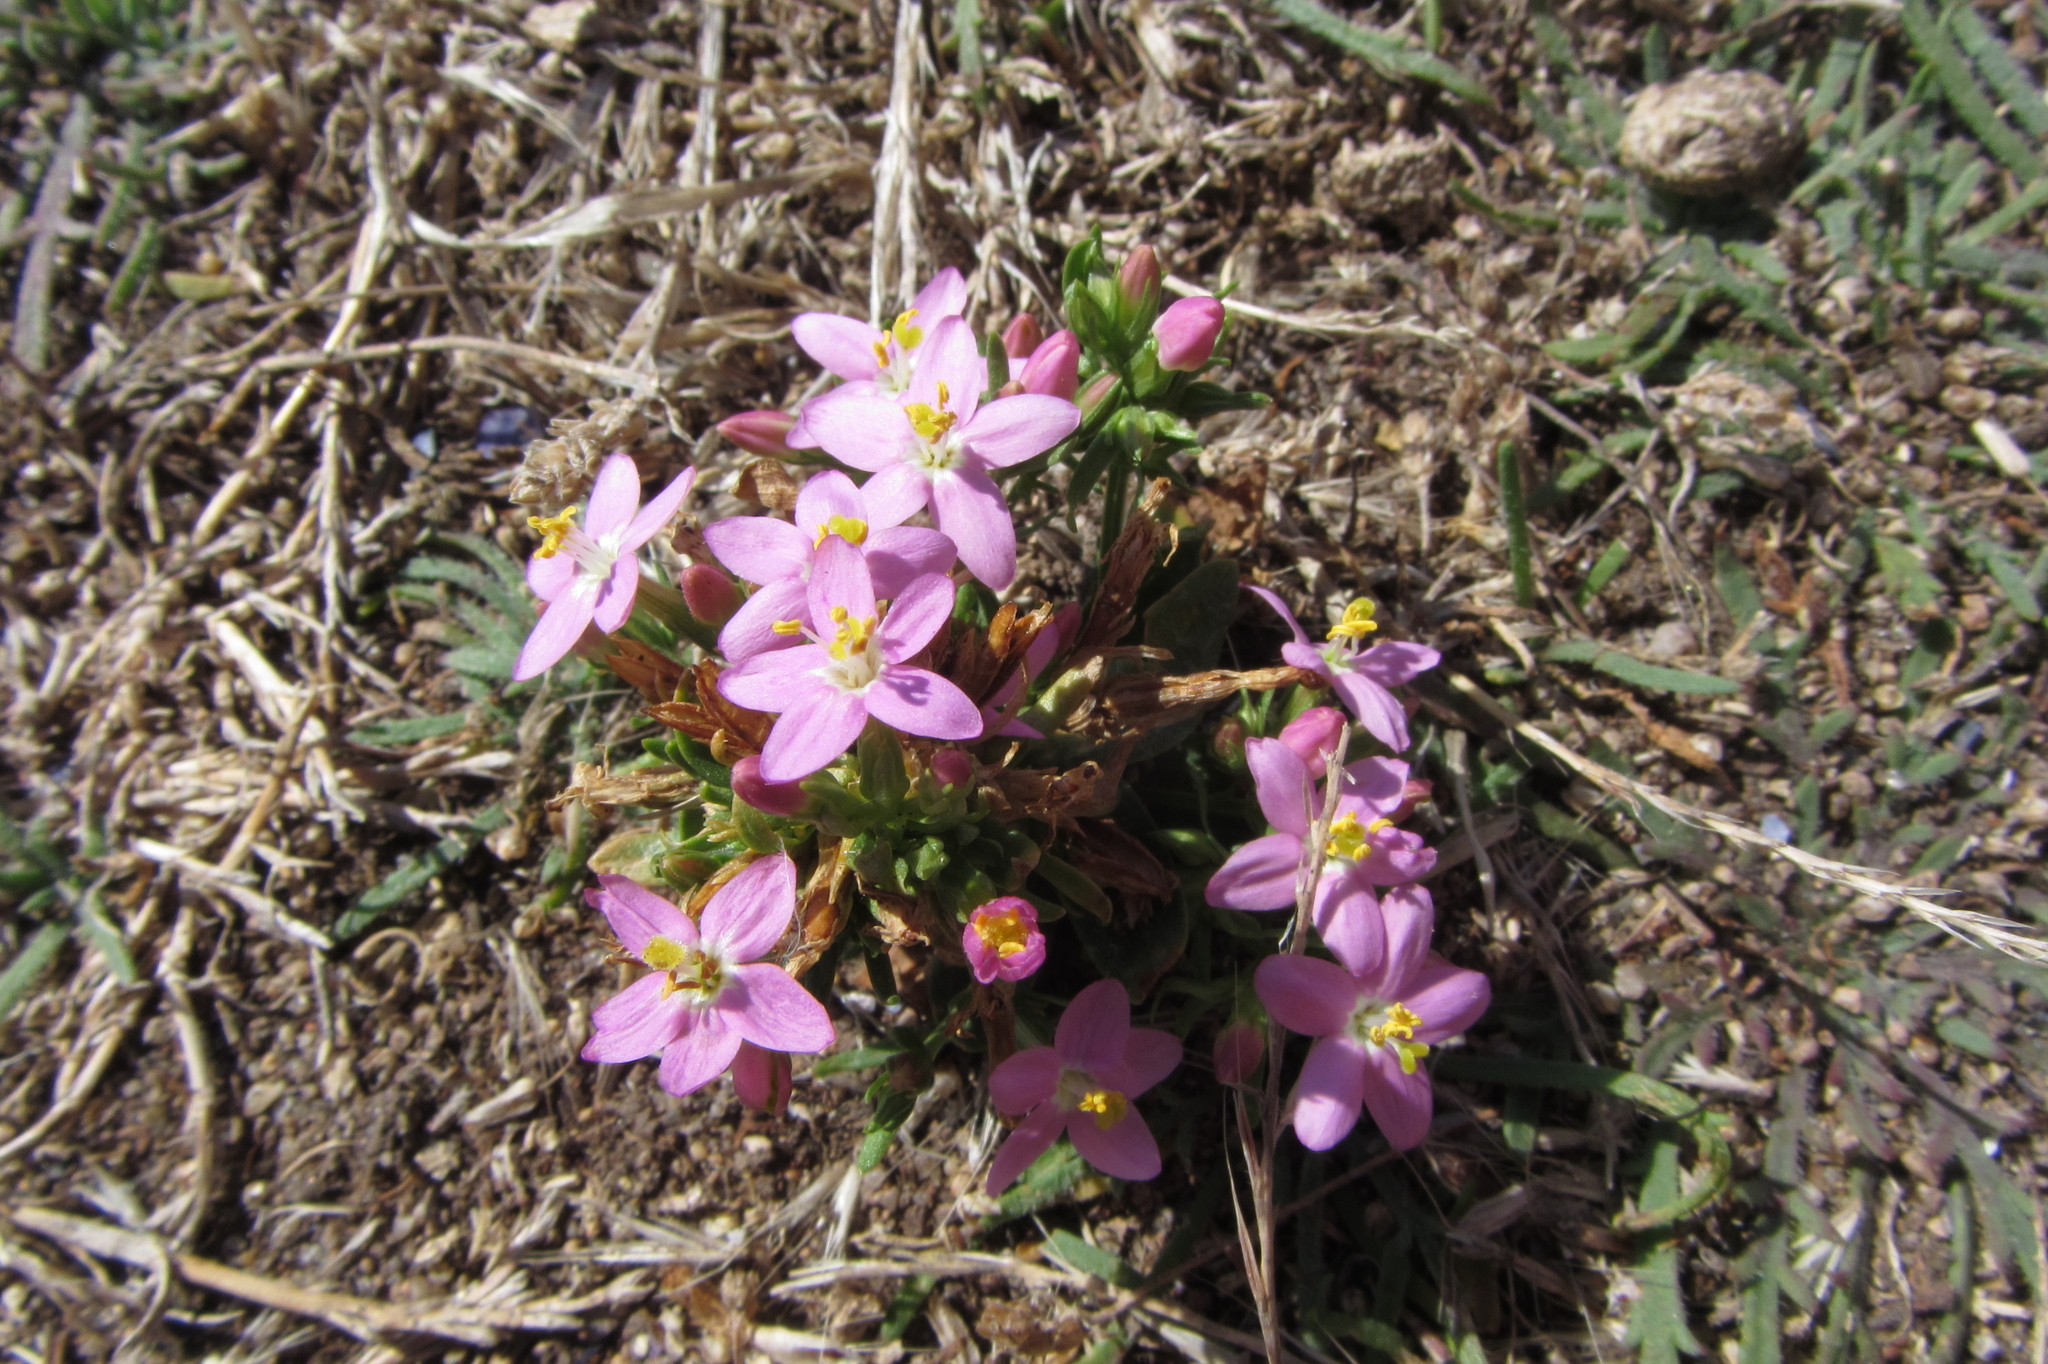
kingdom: Plantae
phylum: Tracheophyta
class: Magnoliopsida
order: Gentianales
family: Gentianaceae
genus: Centaurium
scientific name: Centaurium erythraea
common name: Common centaury
